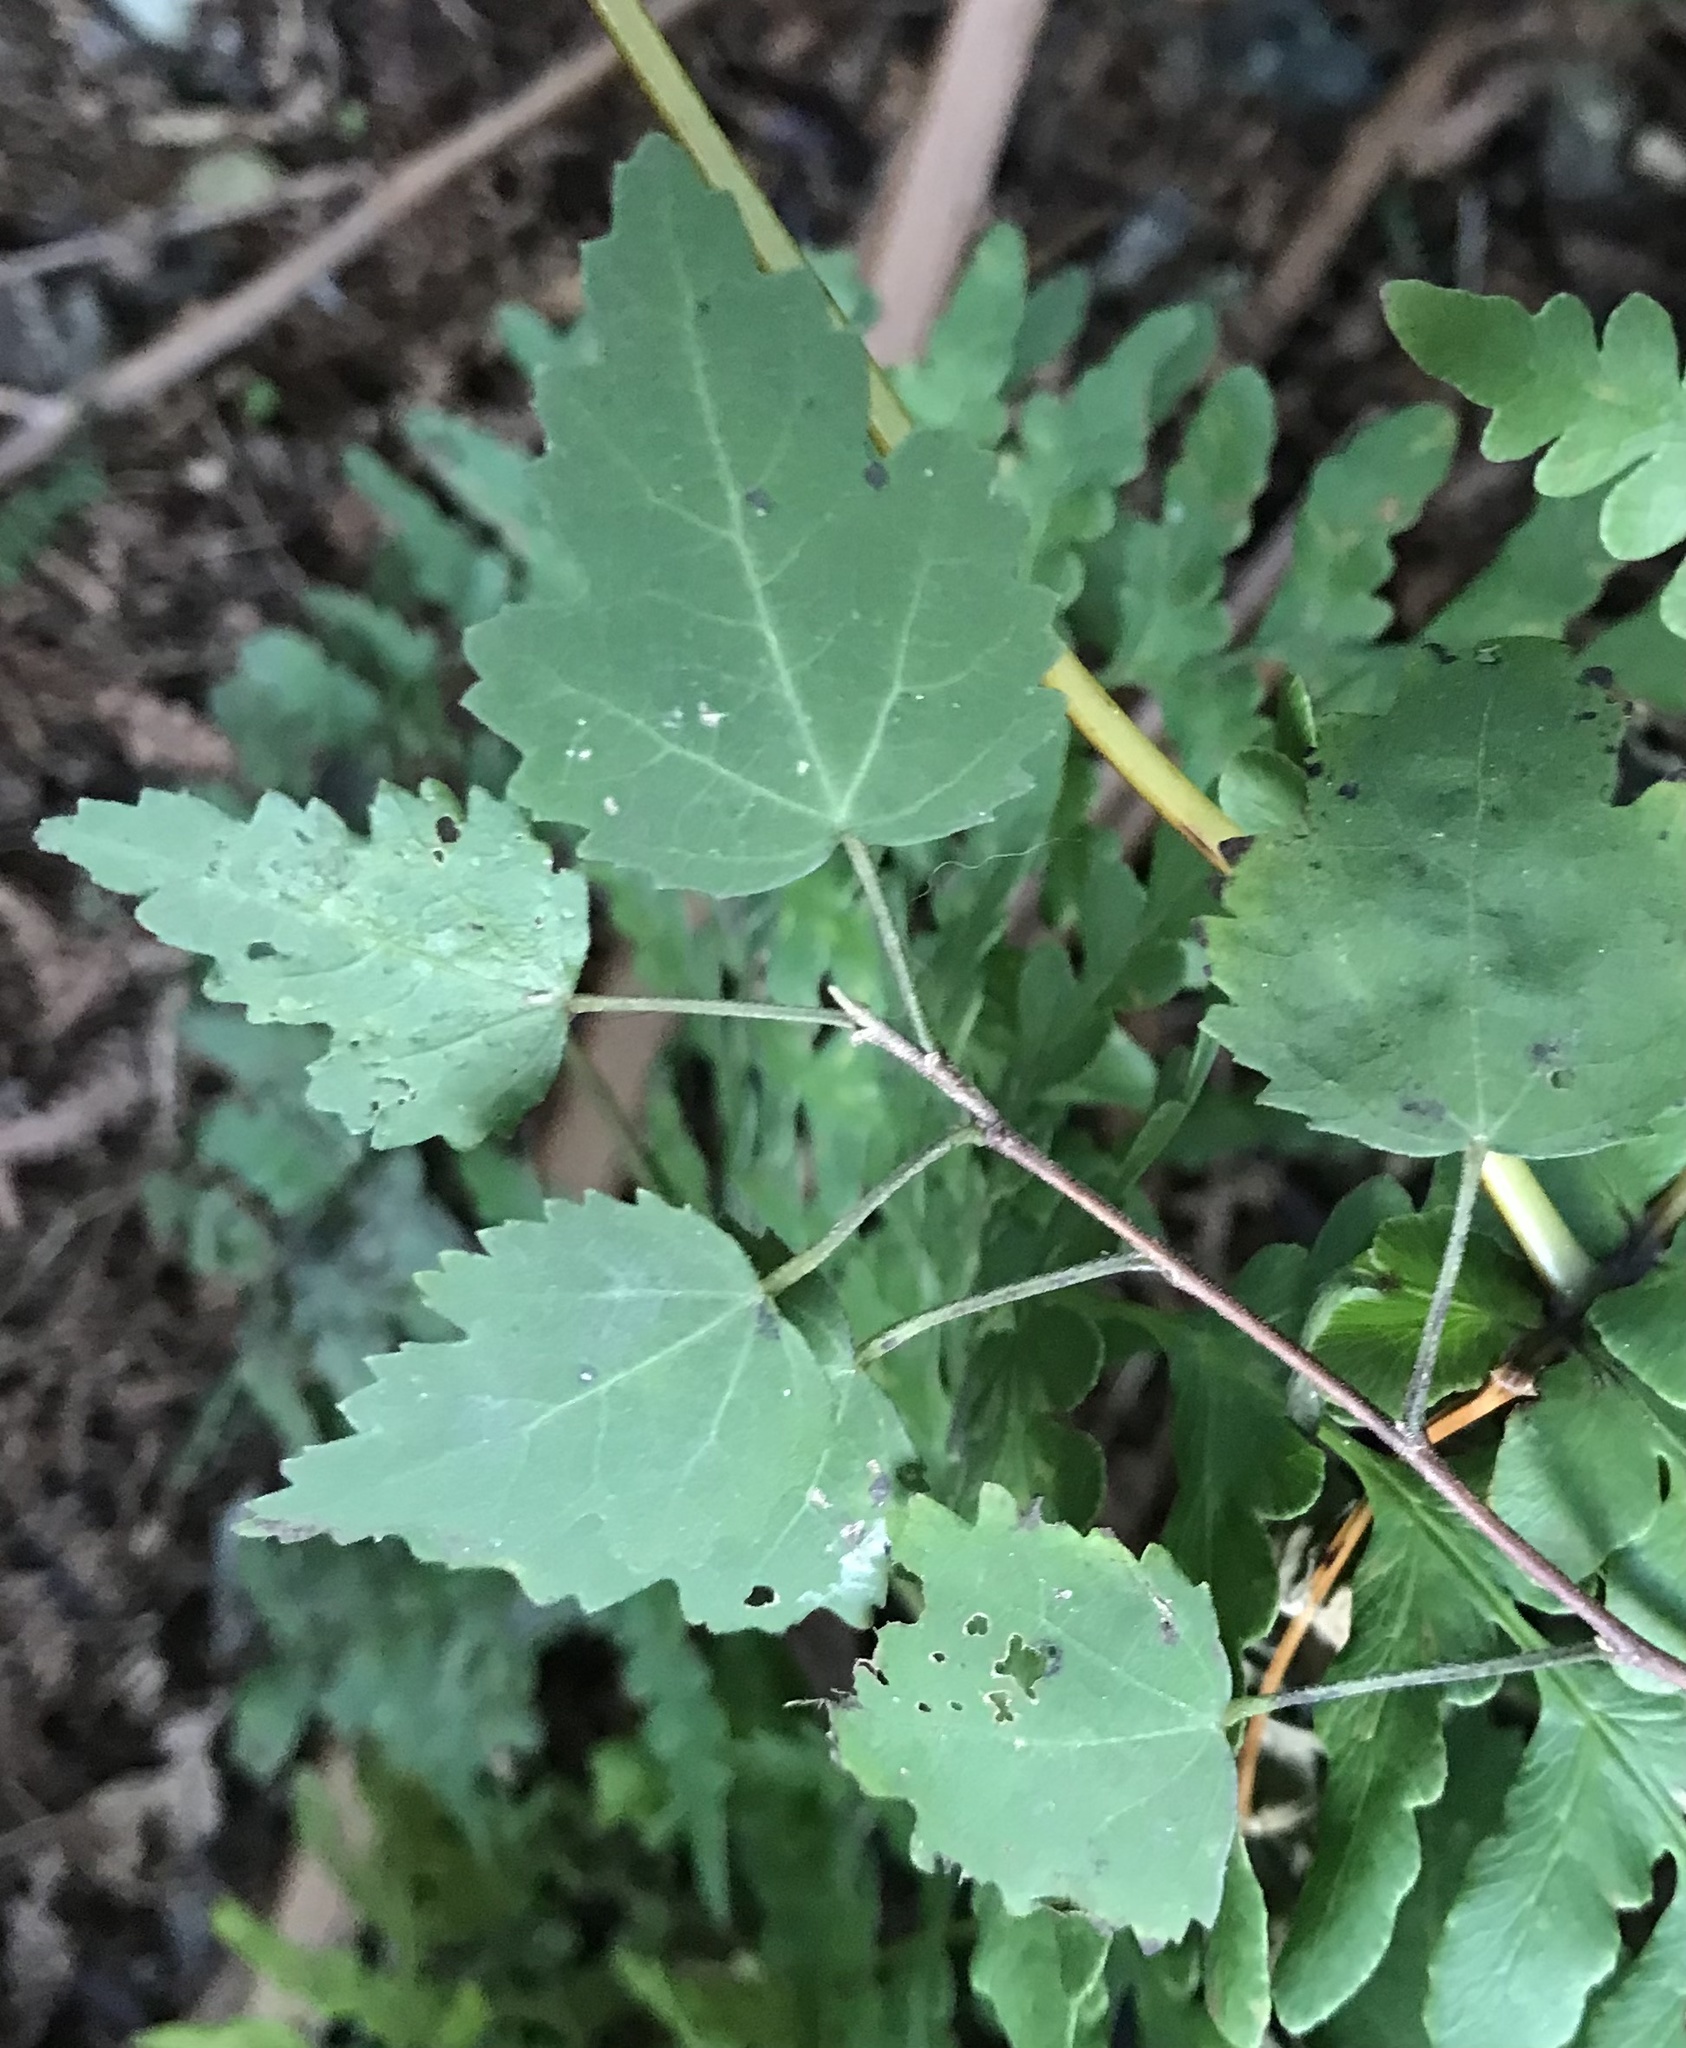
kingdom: Plantae
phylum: Tracheophyta
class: Magnoliopsida
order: Malvales
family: Malvaceae
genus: Plagianthus
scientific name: Plagianthus regius
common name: Manatu
